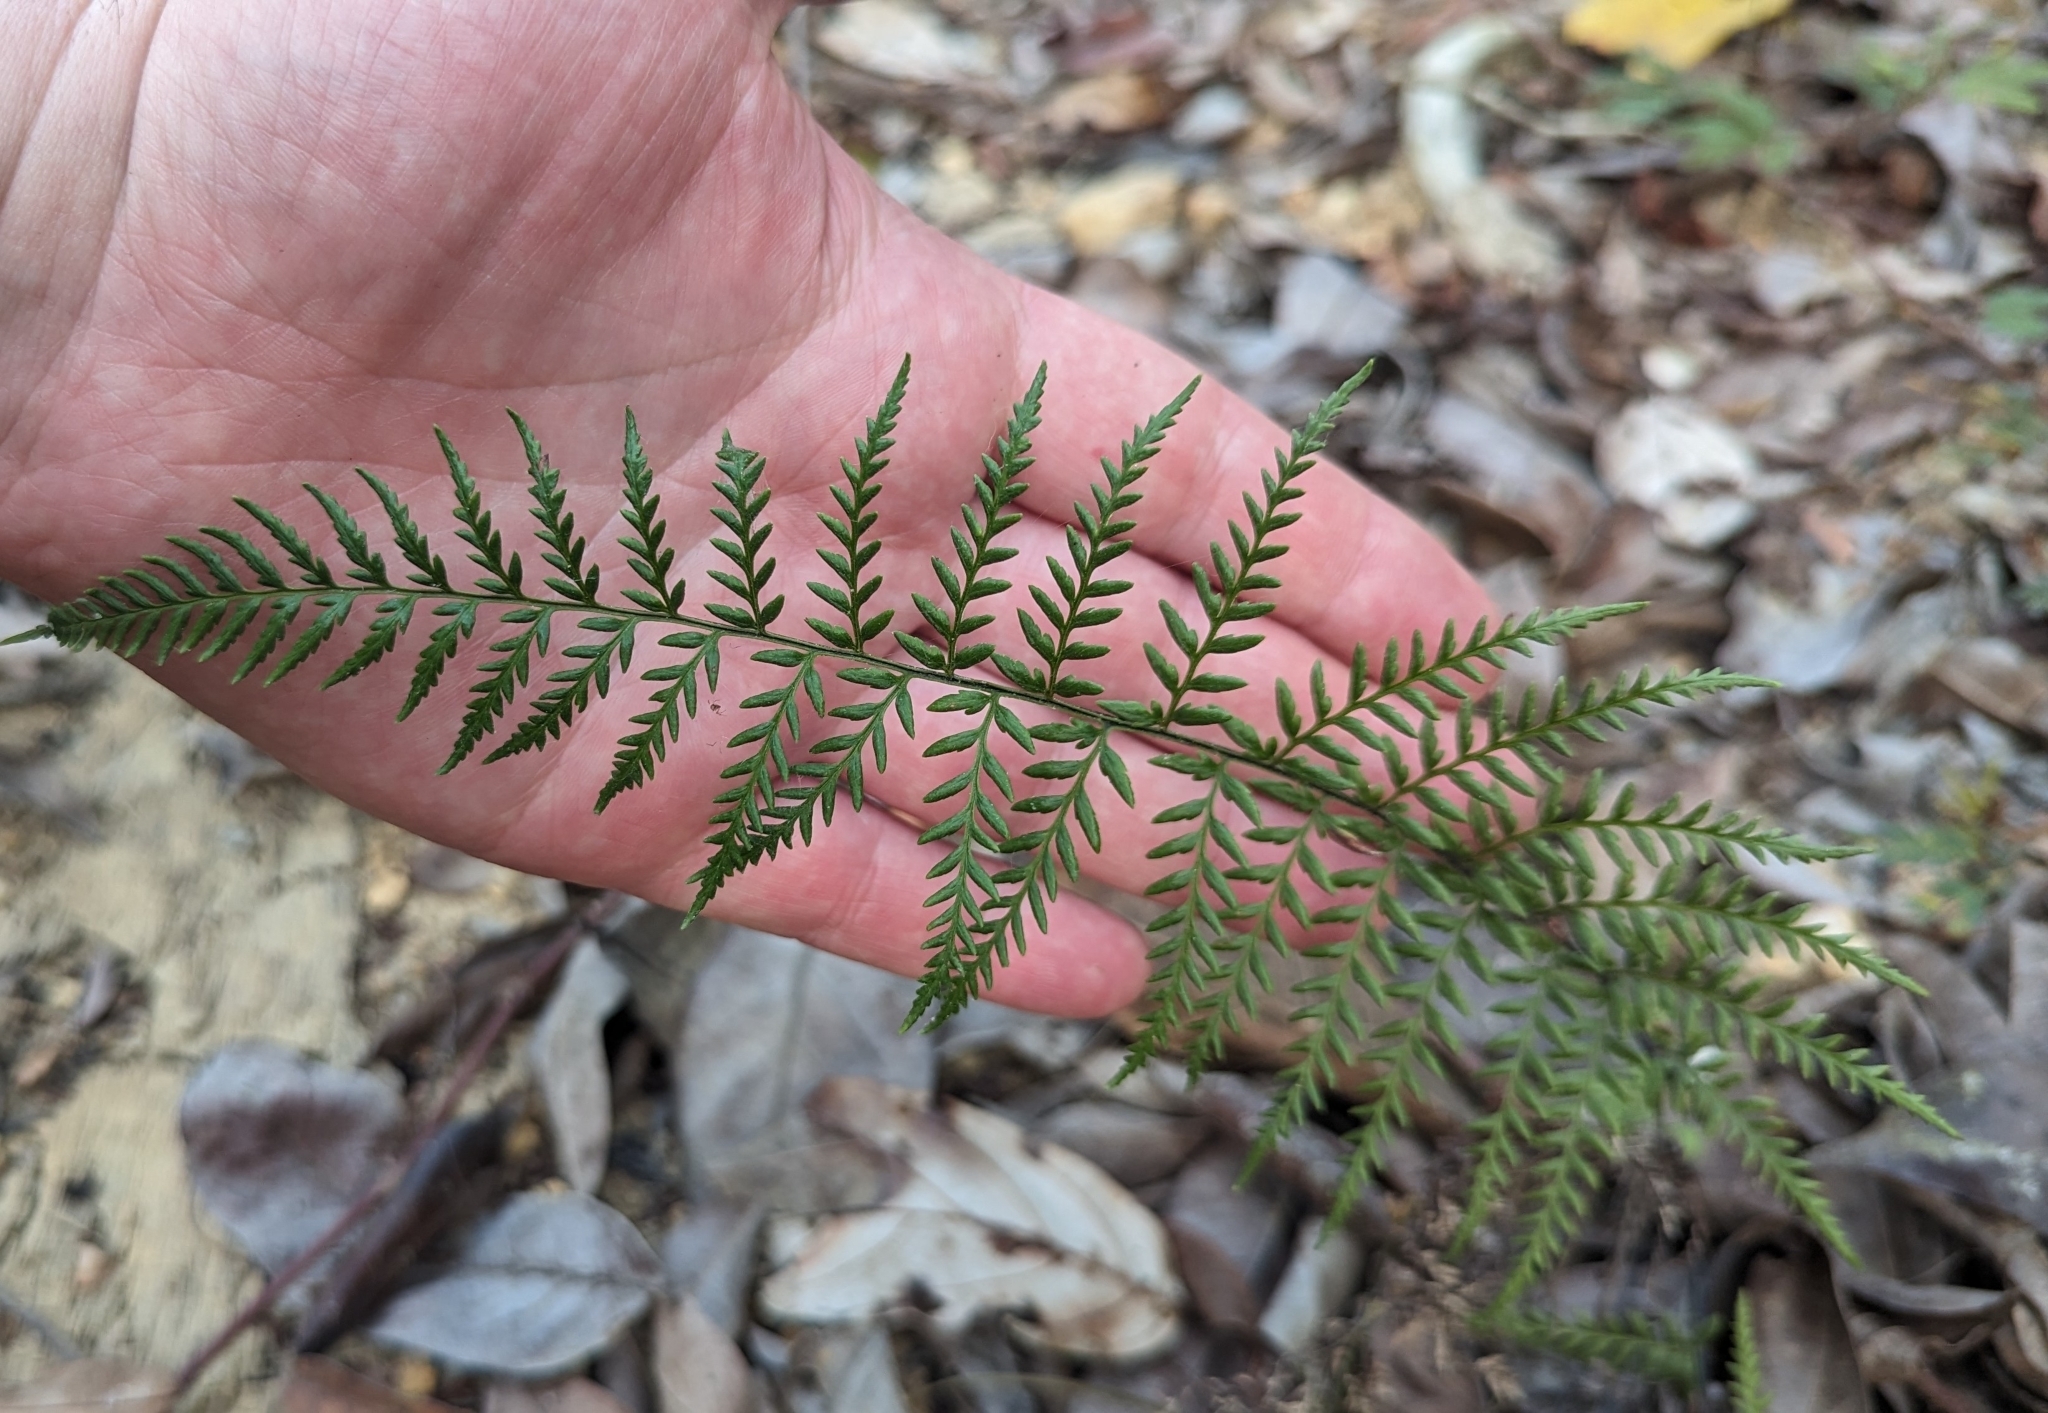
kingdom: Plantae
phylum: Tracheophyta
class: Polypodiopsida
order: Polypodiales
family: Pteridaceae
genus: Pityrogramma
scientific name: Pityrogramma calomelanos
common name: Dixie silverback fern
